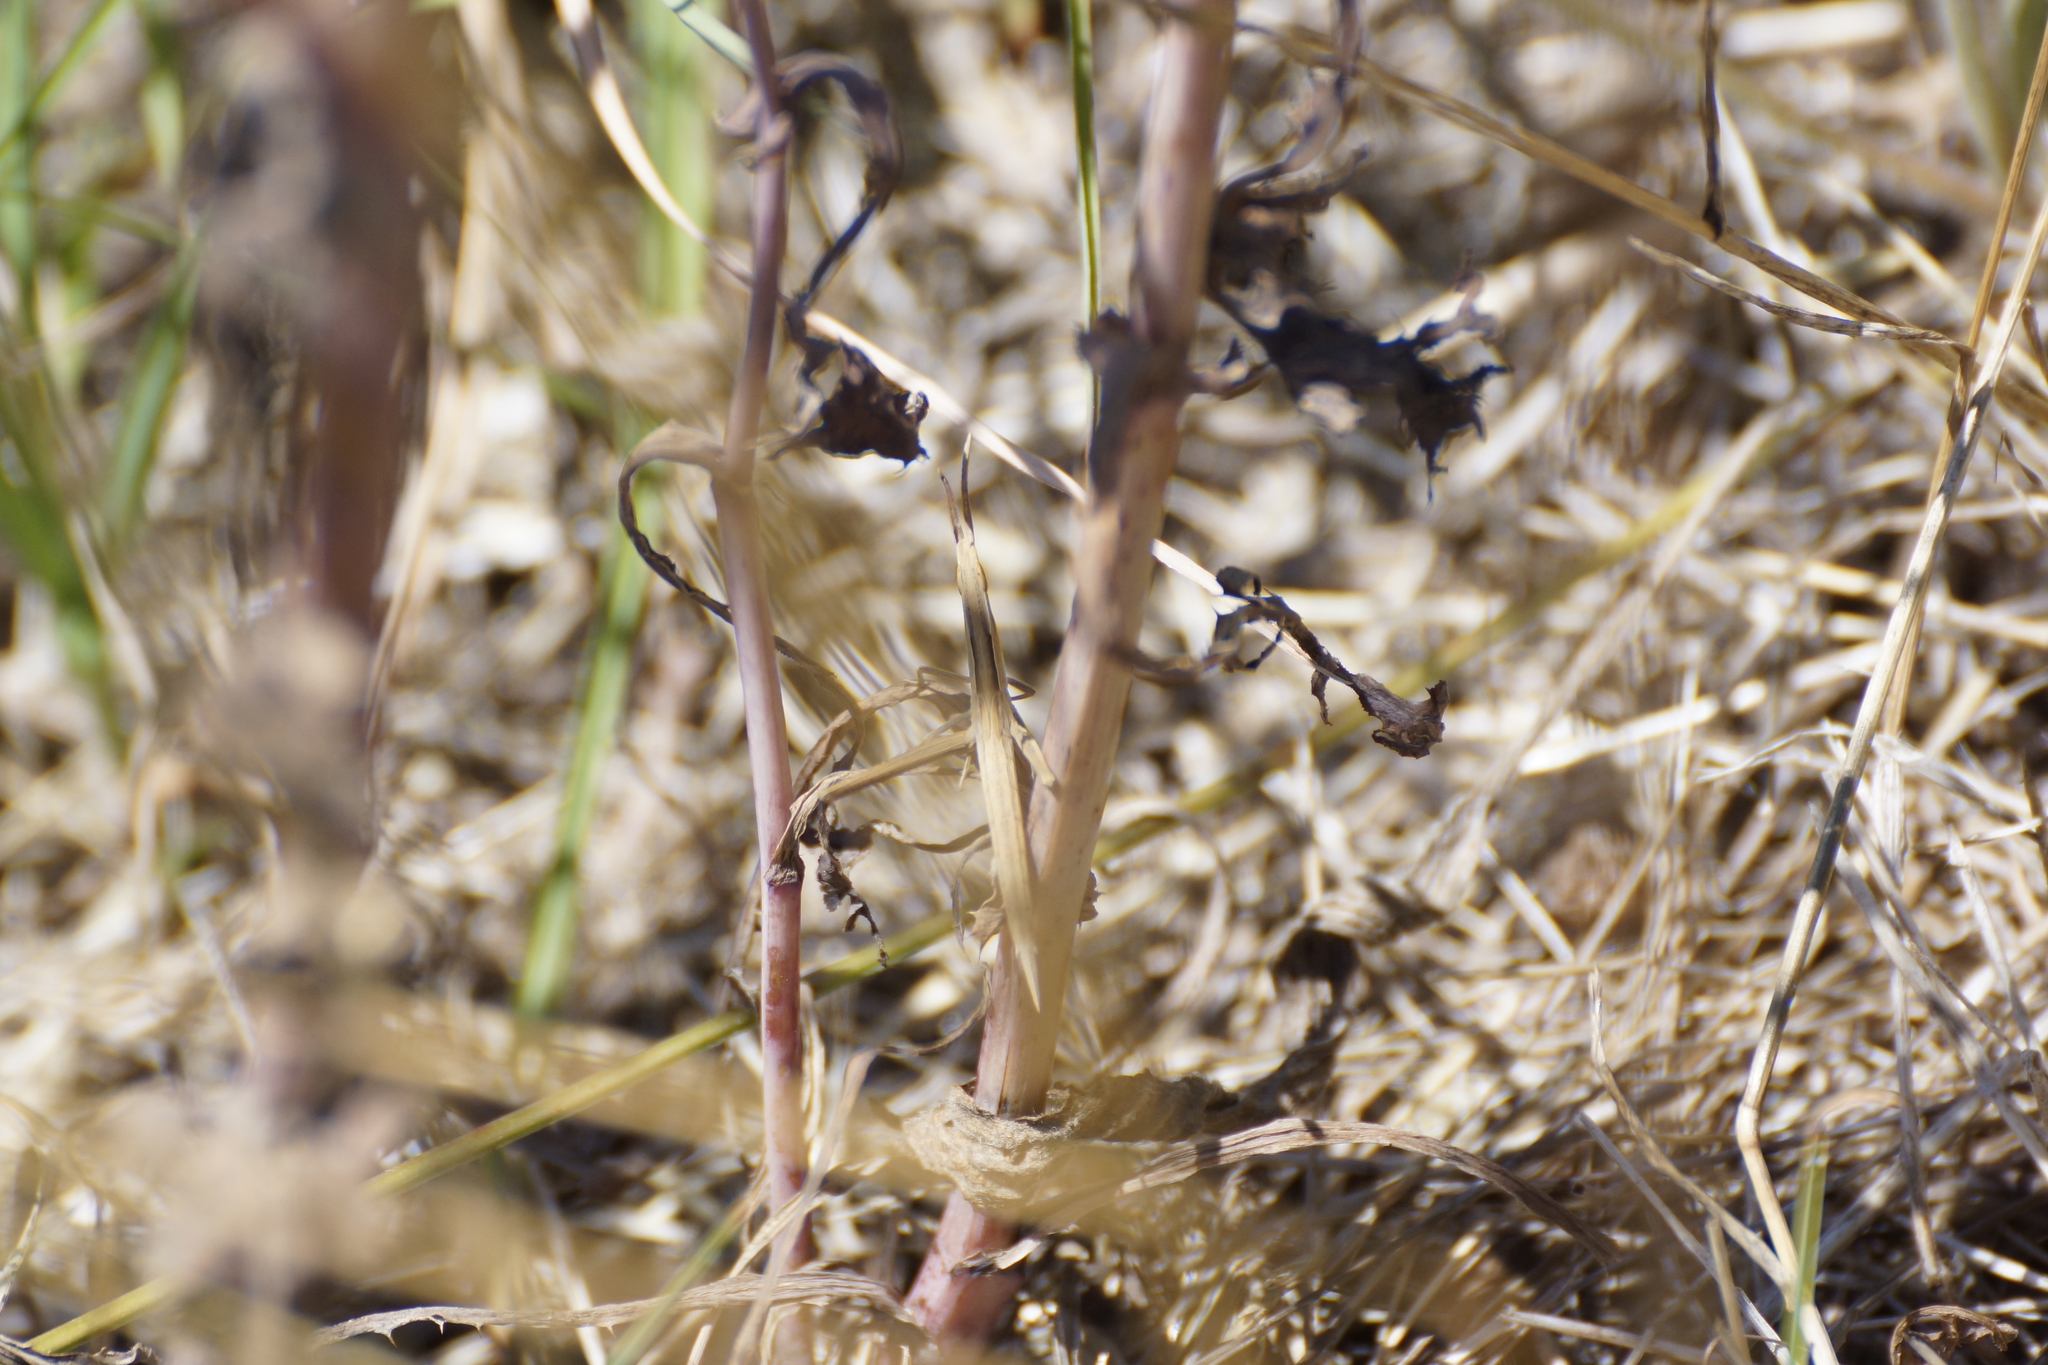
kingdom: Animalia
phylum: Arthropoda
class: Insecta
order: Orthoptera
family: Acrididae
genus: Acrida
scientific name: Acrida conica
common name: Giant green slantface
